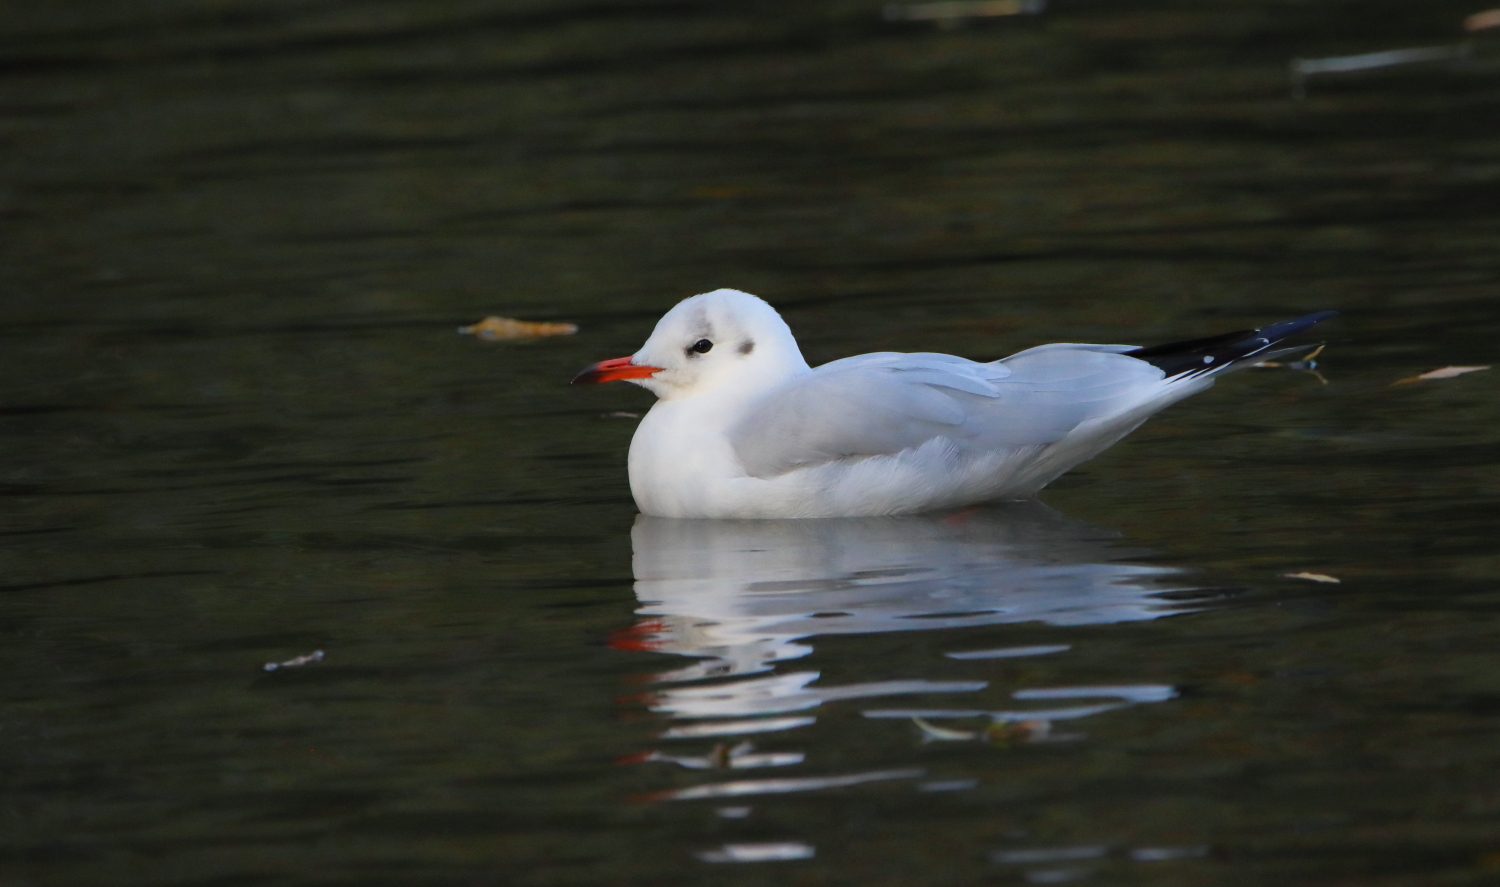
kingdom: Animalia
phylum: Chordata
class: Aves
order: Charadriiformes
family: Laridae
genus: Chroicocephalus
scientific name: Chroicocephalus ridibundus
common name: Black-headed gull
